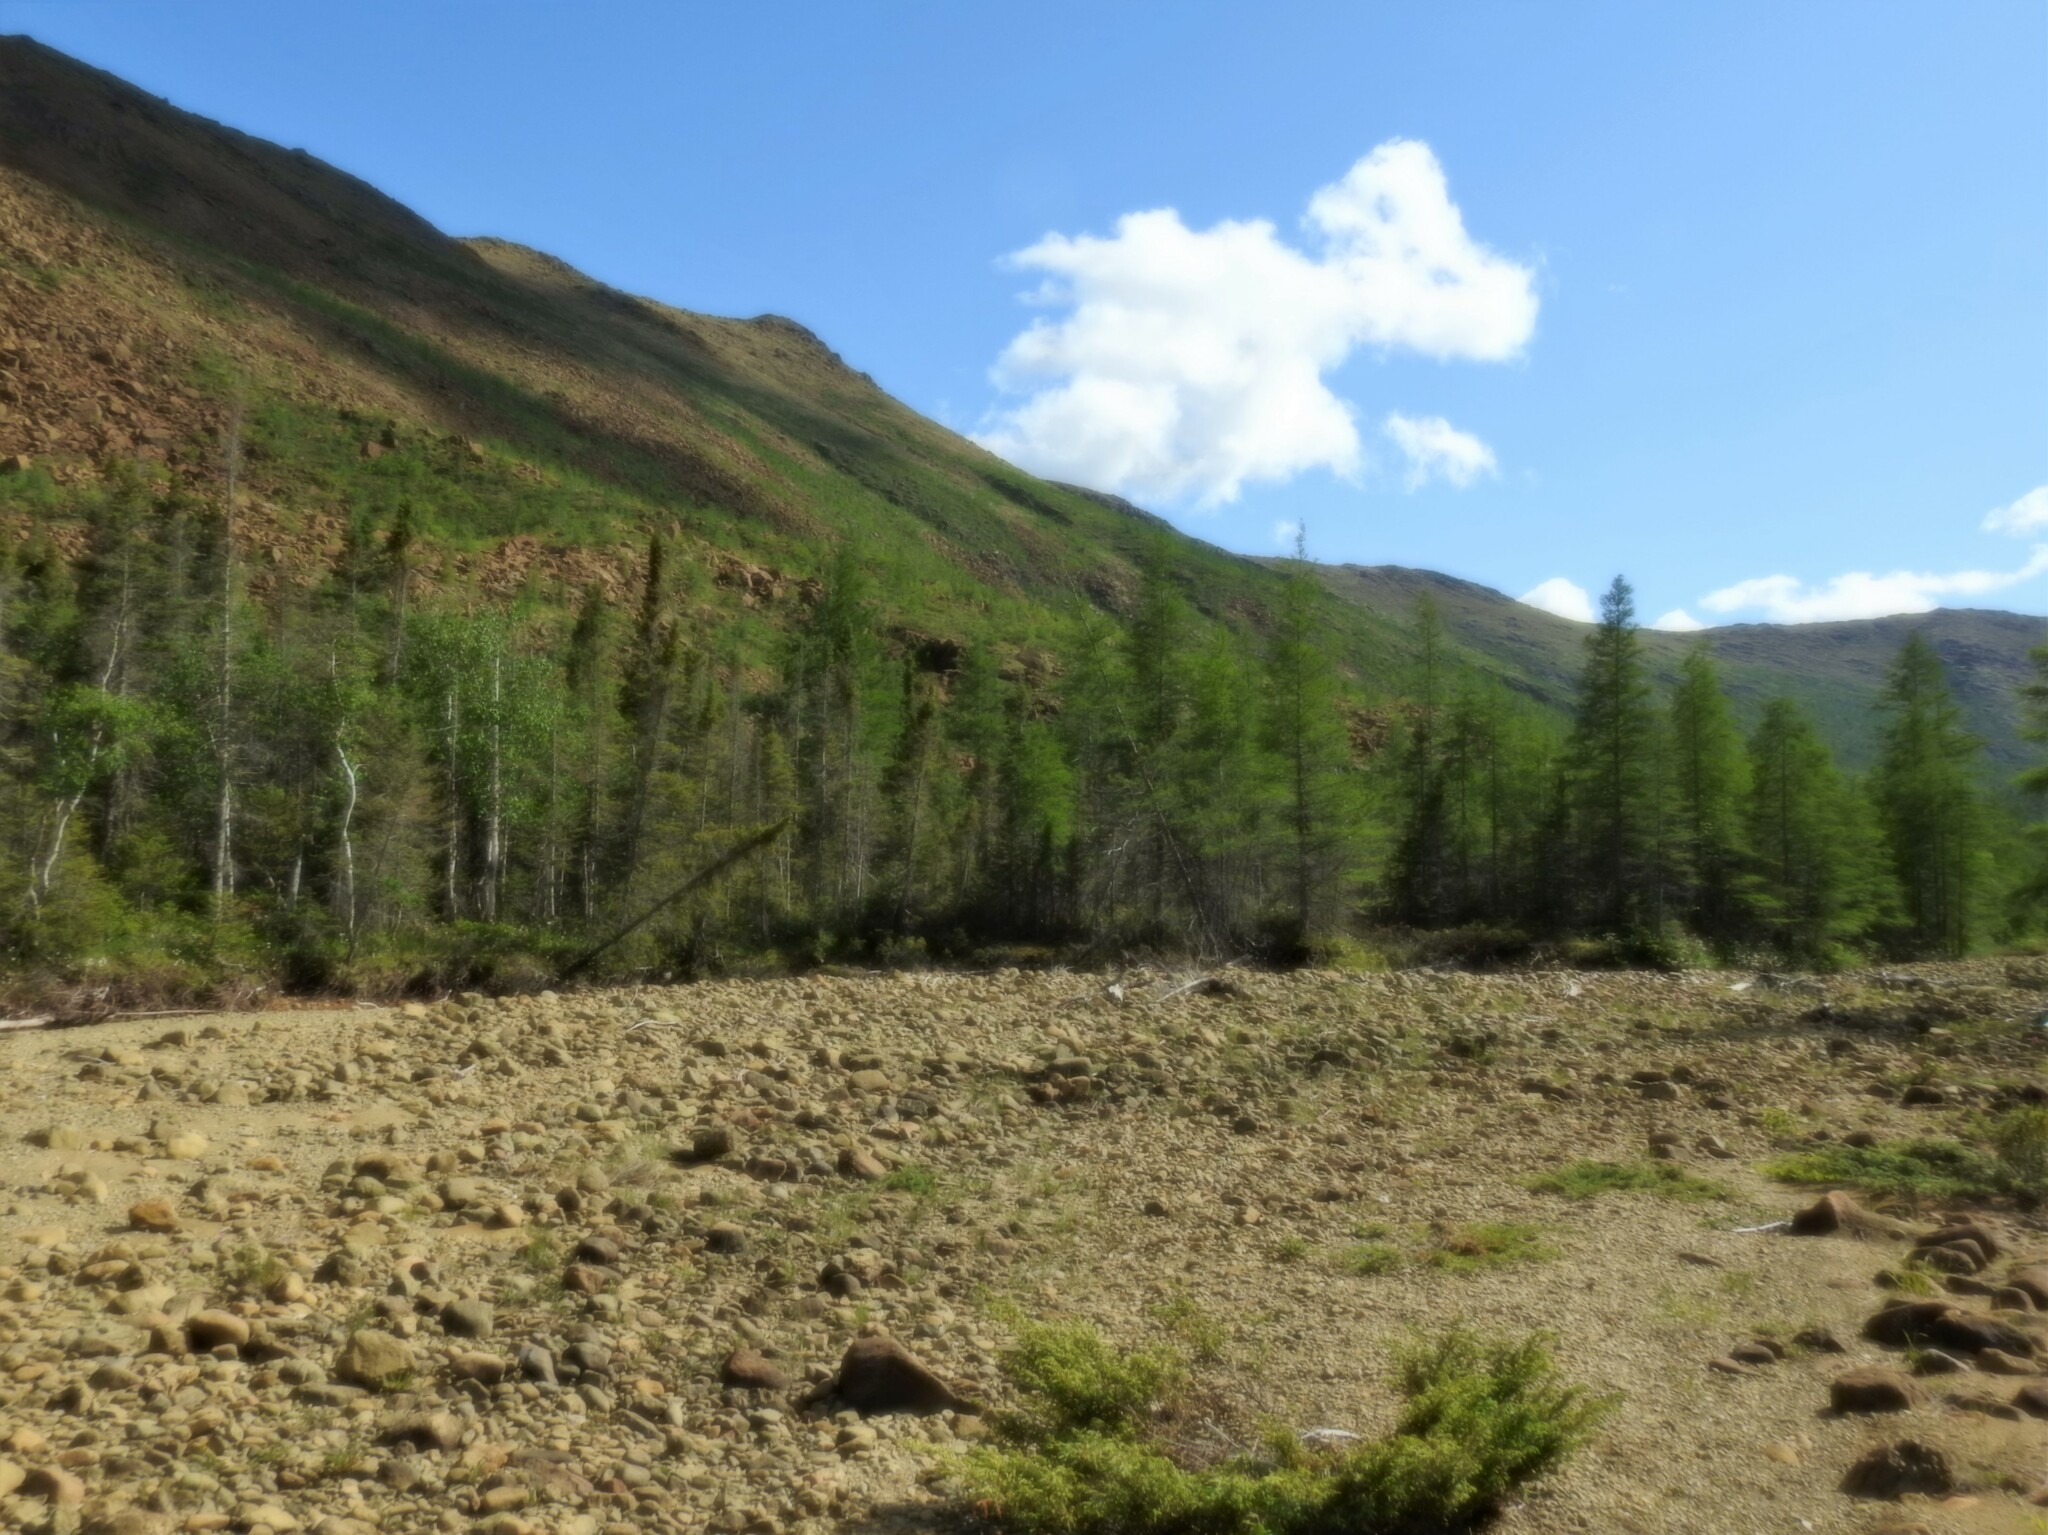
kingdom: Plantae
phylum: Tracheophyta
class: Pinopsida
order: Pinales
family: Pinaceae
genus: Larix
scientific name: Larix laricina
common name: American larch
